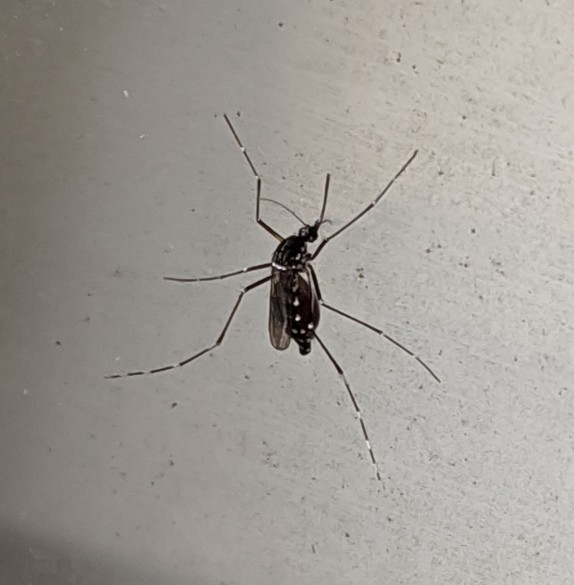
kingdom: Animalia
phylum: Arthropoda
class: Insecta
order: Diptera
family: Culicidae
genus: Aedes
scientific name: Aedes albopictus
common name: Tiger mosquito
